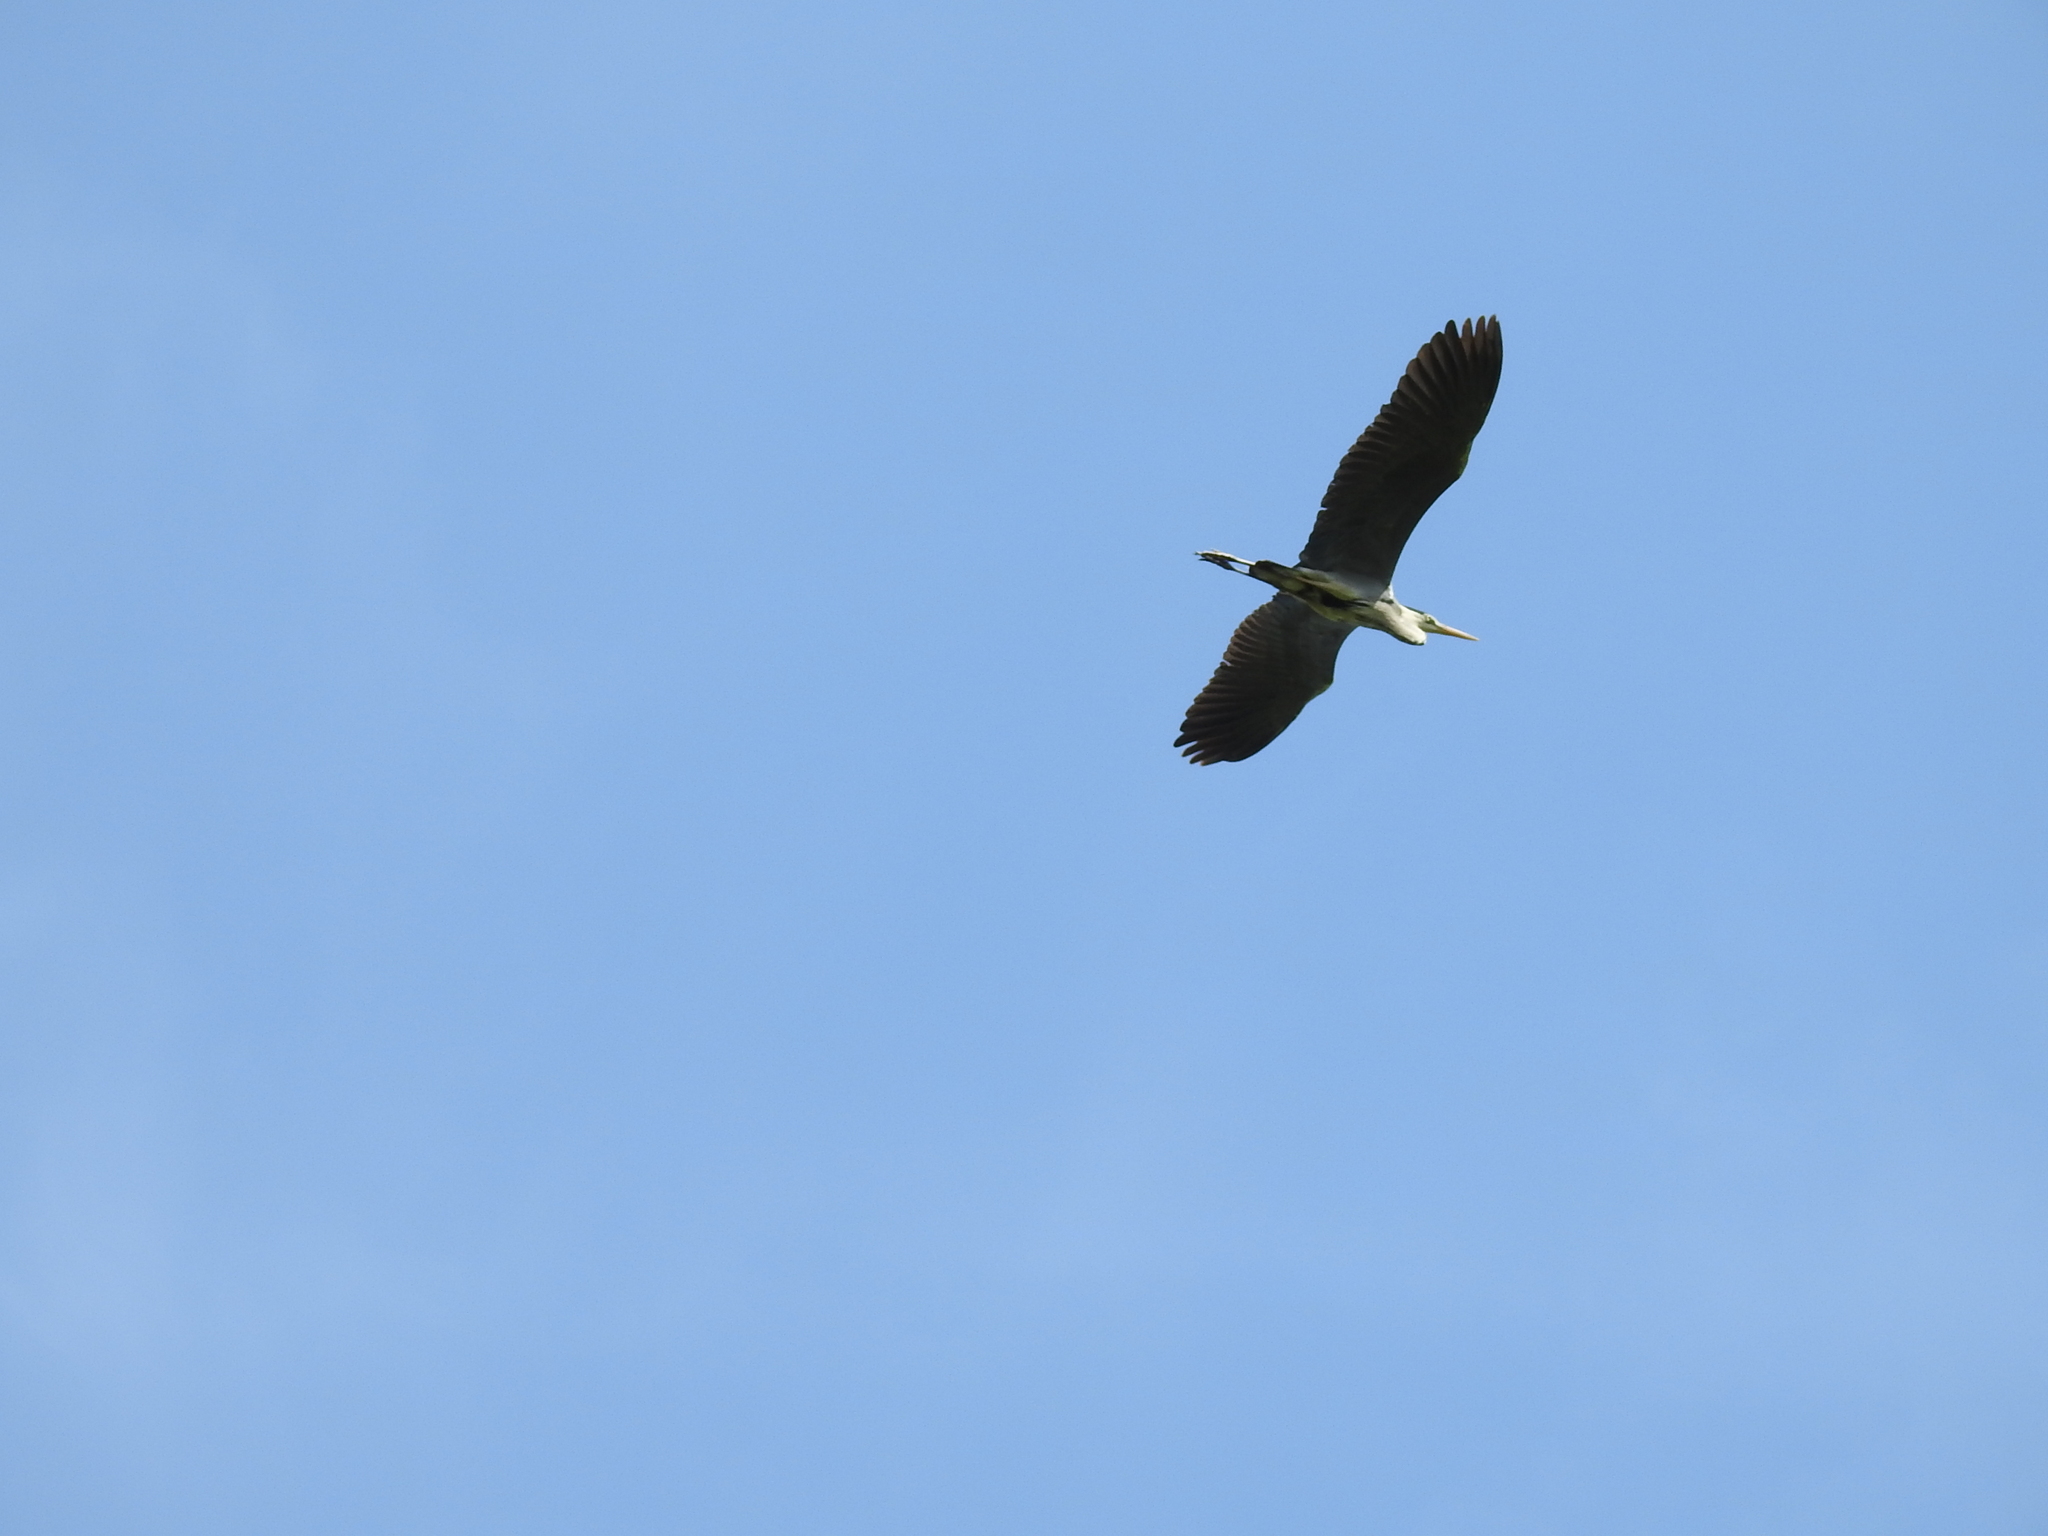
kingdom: Animalia
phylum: Chordata
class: Aves
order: Pelecaniformes
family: Ardeidae
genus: Ardea
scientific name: Ardea cinerea
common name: Grey heron
